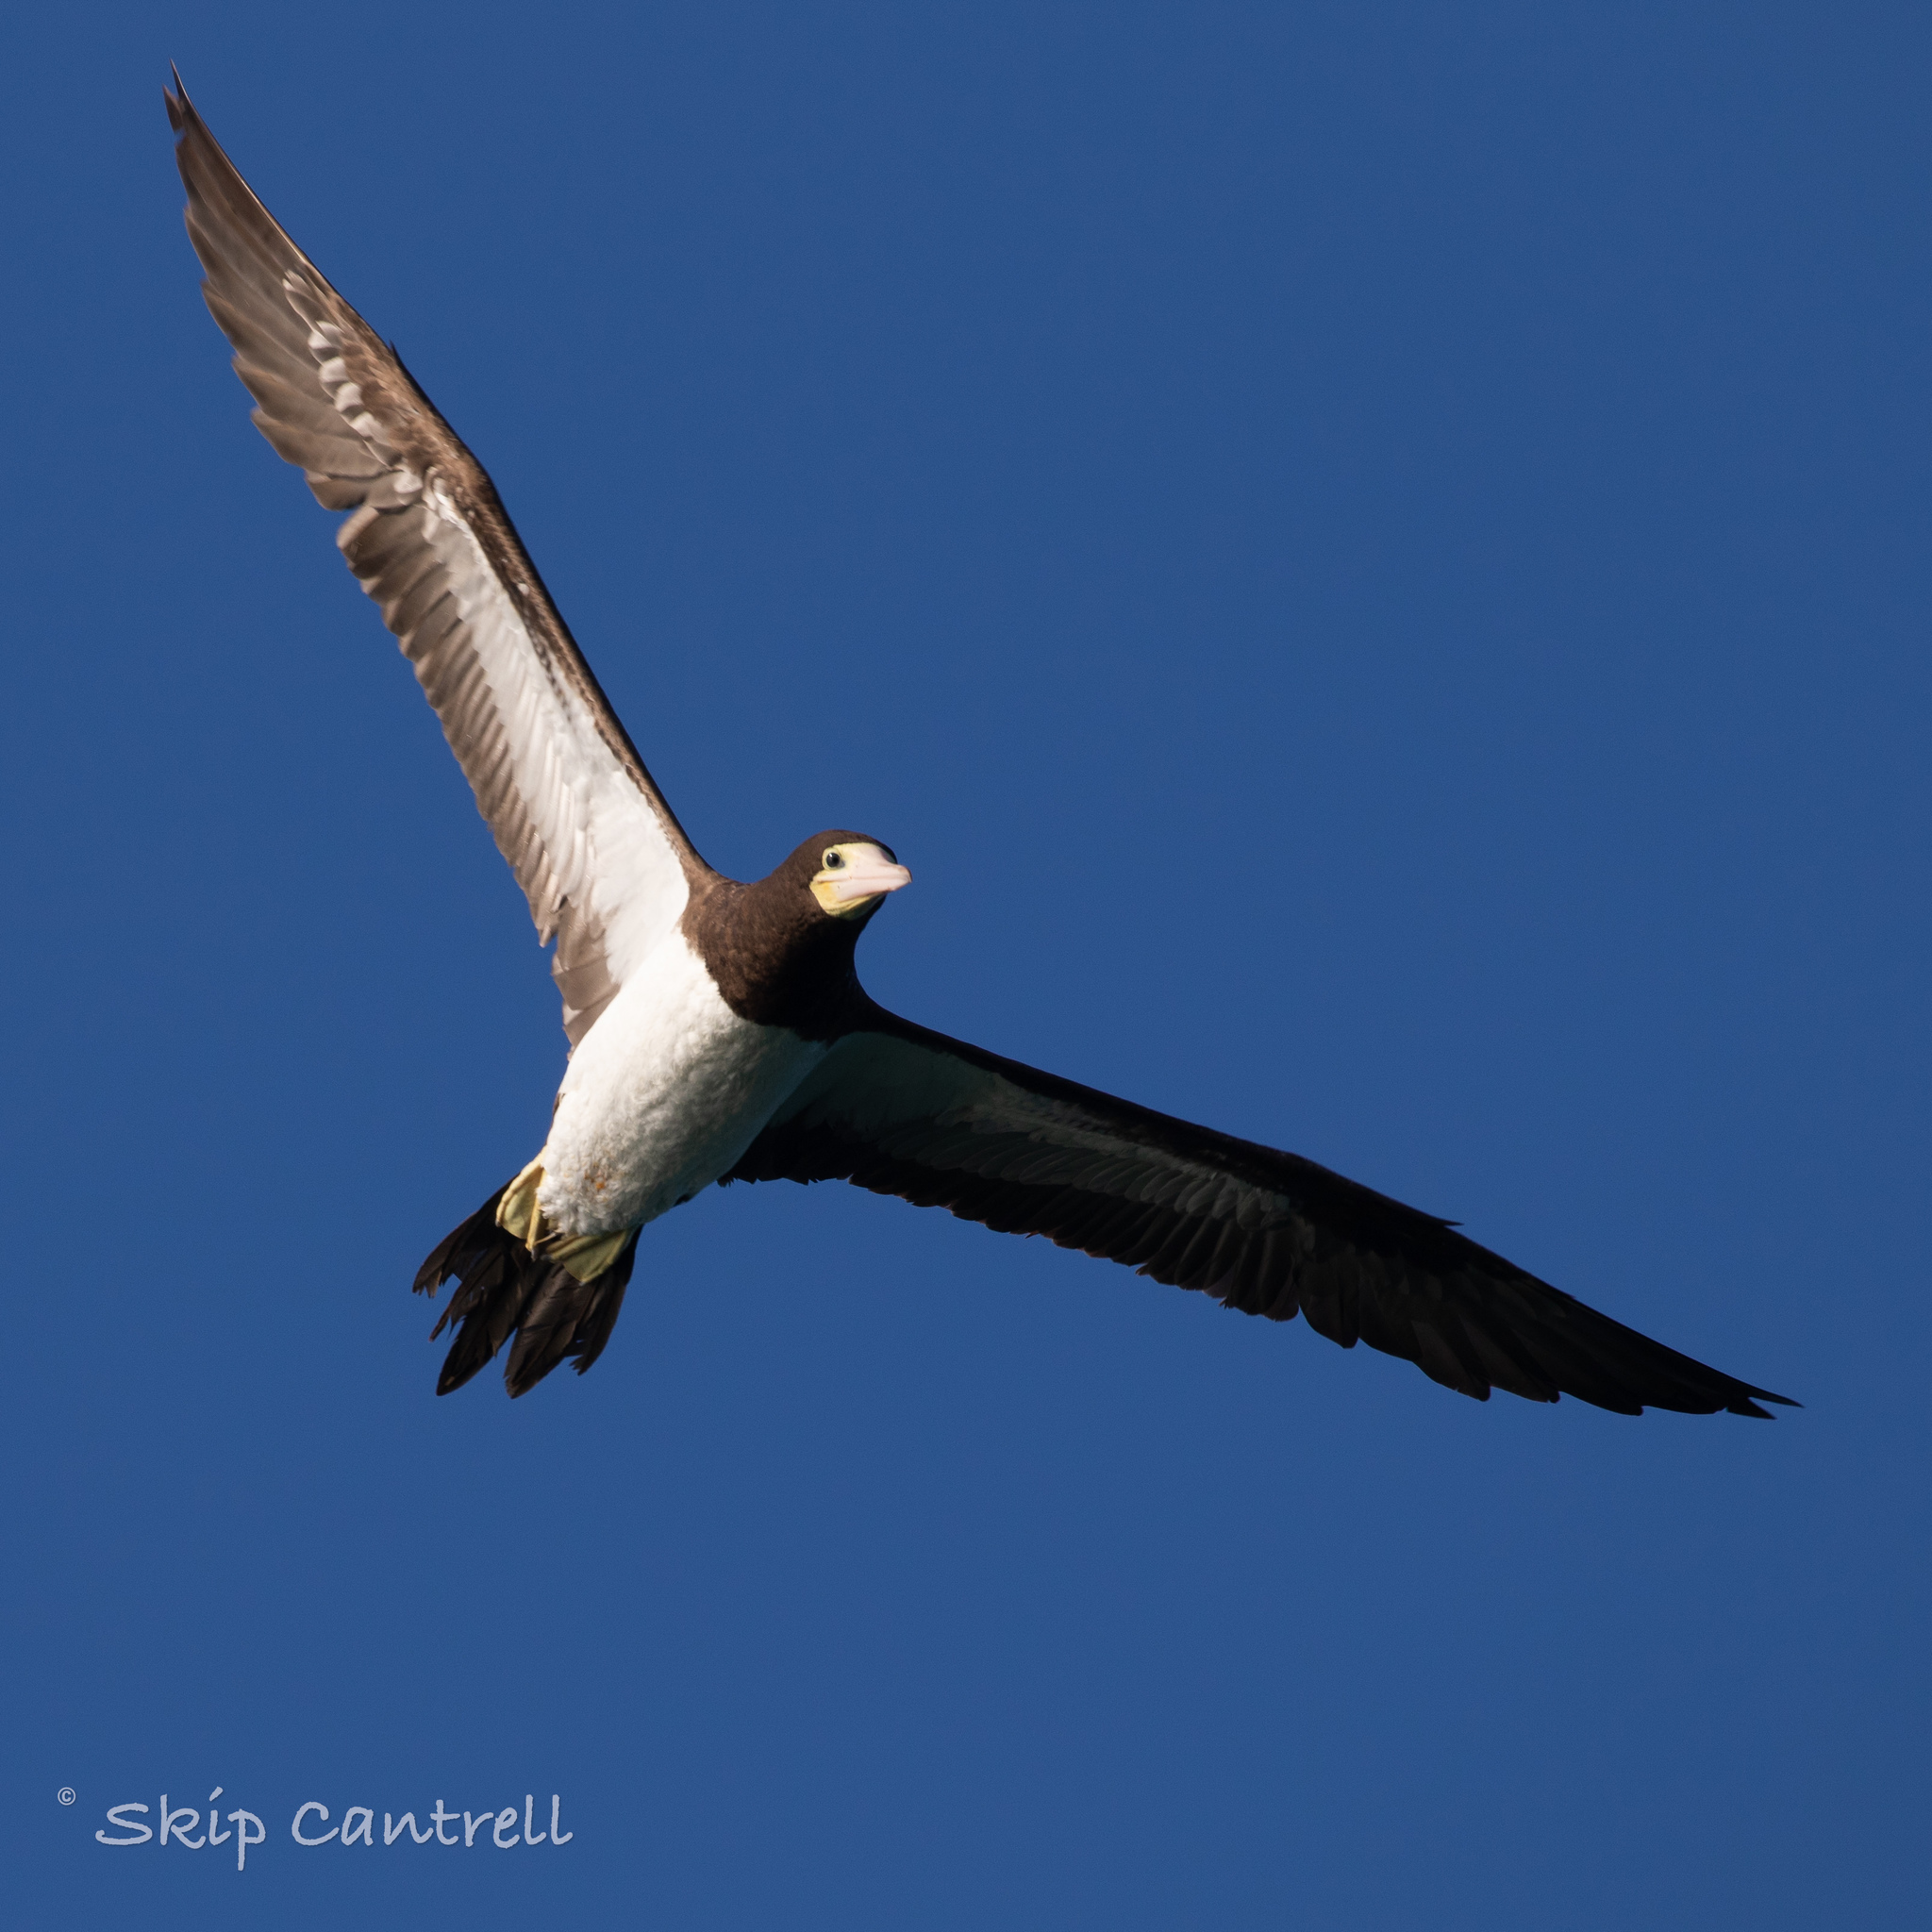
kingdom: Animalia
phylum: Chordata
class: Aves
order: Suliformes
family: Sulidae
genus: Sula
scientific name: Sula leucogaster
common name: Brown booby
